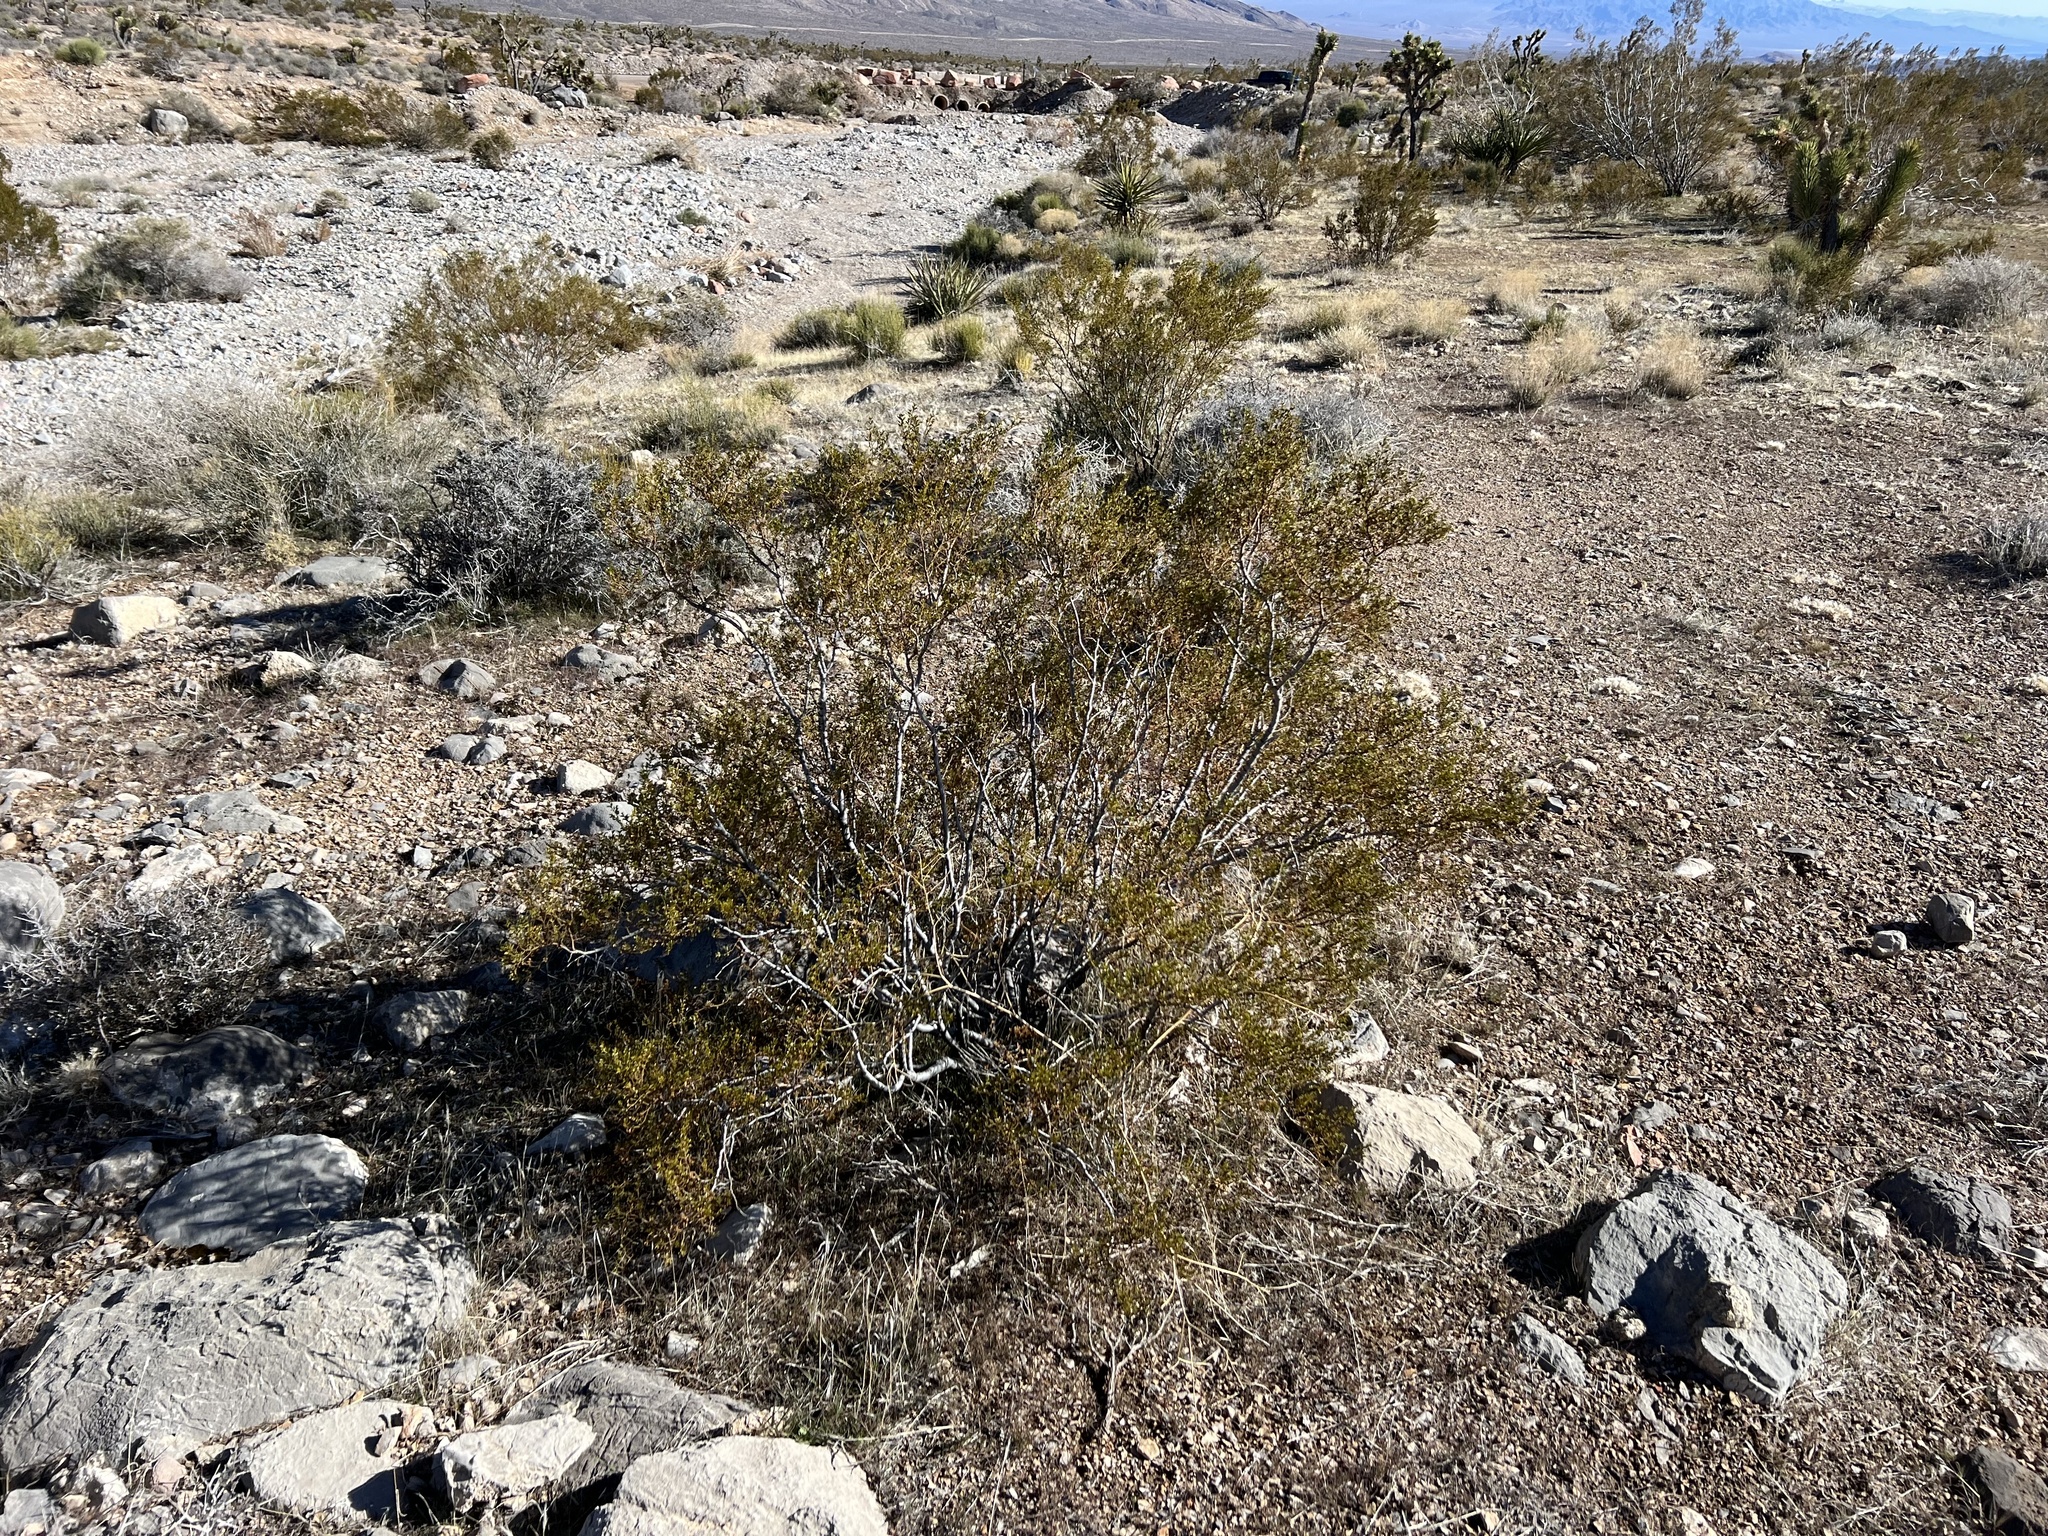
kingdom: Plantae
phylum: Tracheophyta
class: Magnoliopsida
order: Zygophyllales
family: Zygophyllaceae
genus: Larrea
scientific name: Larrea tridentata
